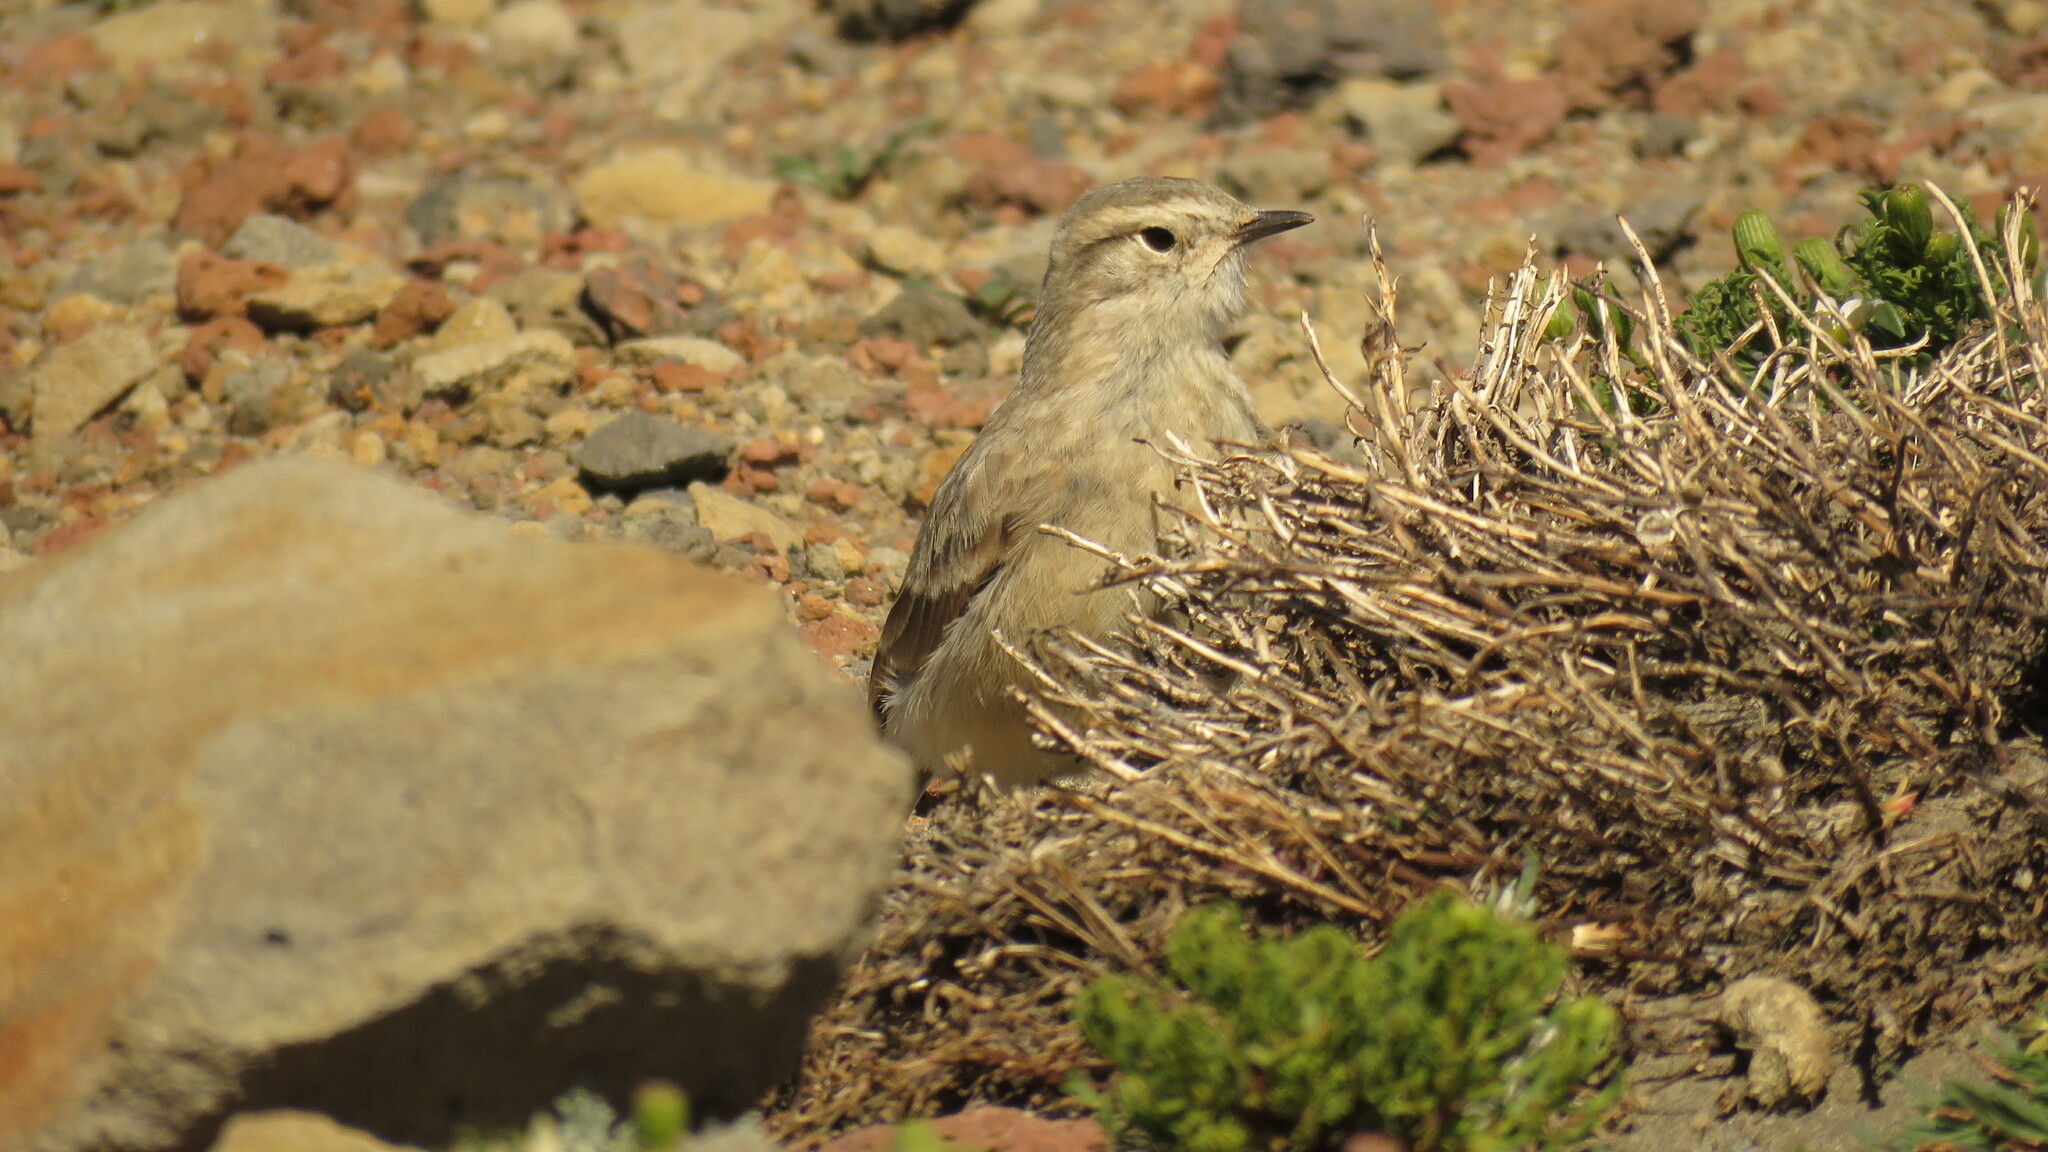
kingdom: Animalia
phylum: Chordata
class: Aves
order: Passeriformes
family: Furnariidae
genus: Geositta
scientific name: Geositta antarctica
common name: Short-billed miner
